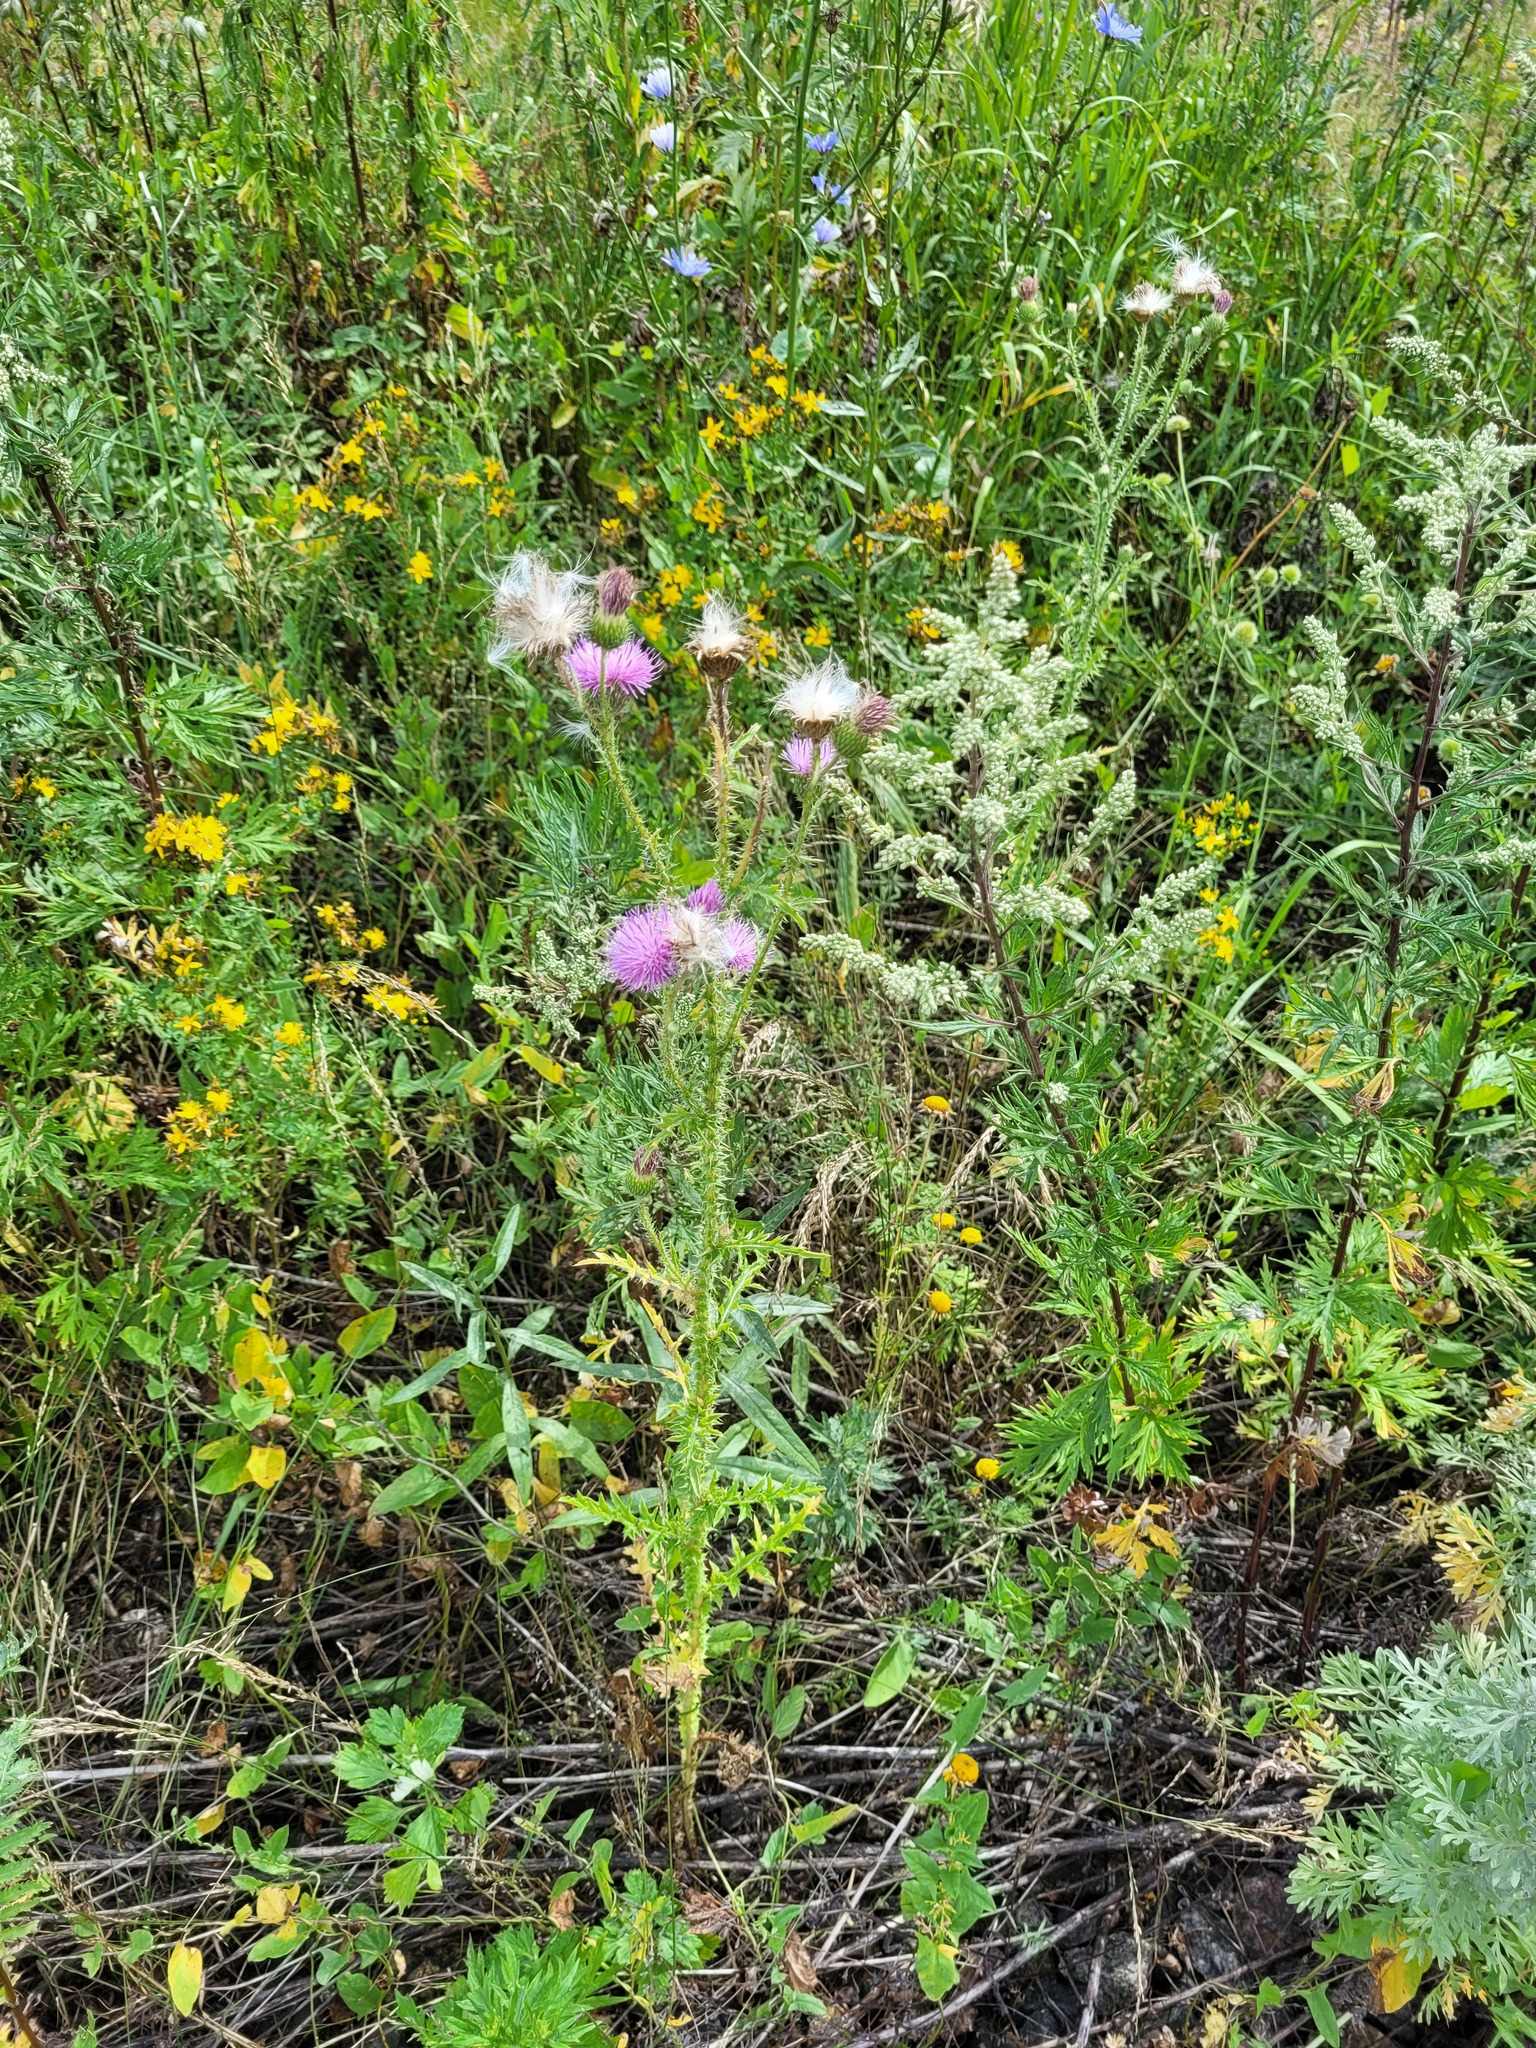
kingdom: Plantae
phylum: Tracheophyta
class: Magnoliopsida
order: Asterales
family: Asteraceae
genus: Carduus
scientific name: Carduus acanthoides
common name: Plumeless thistle
